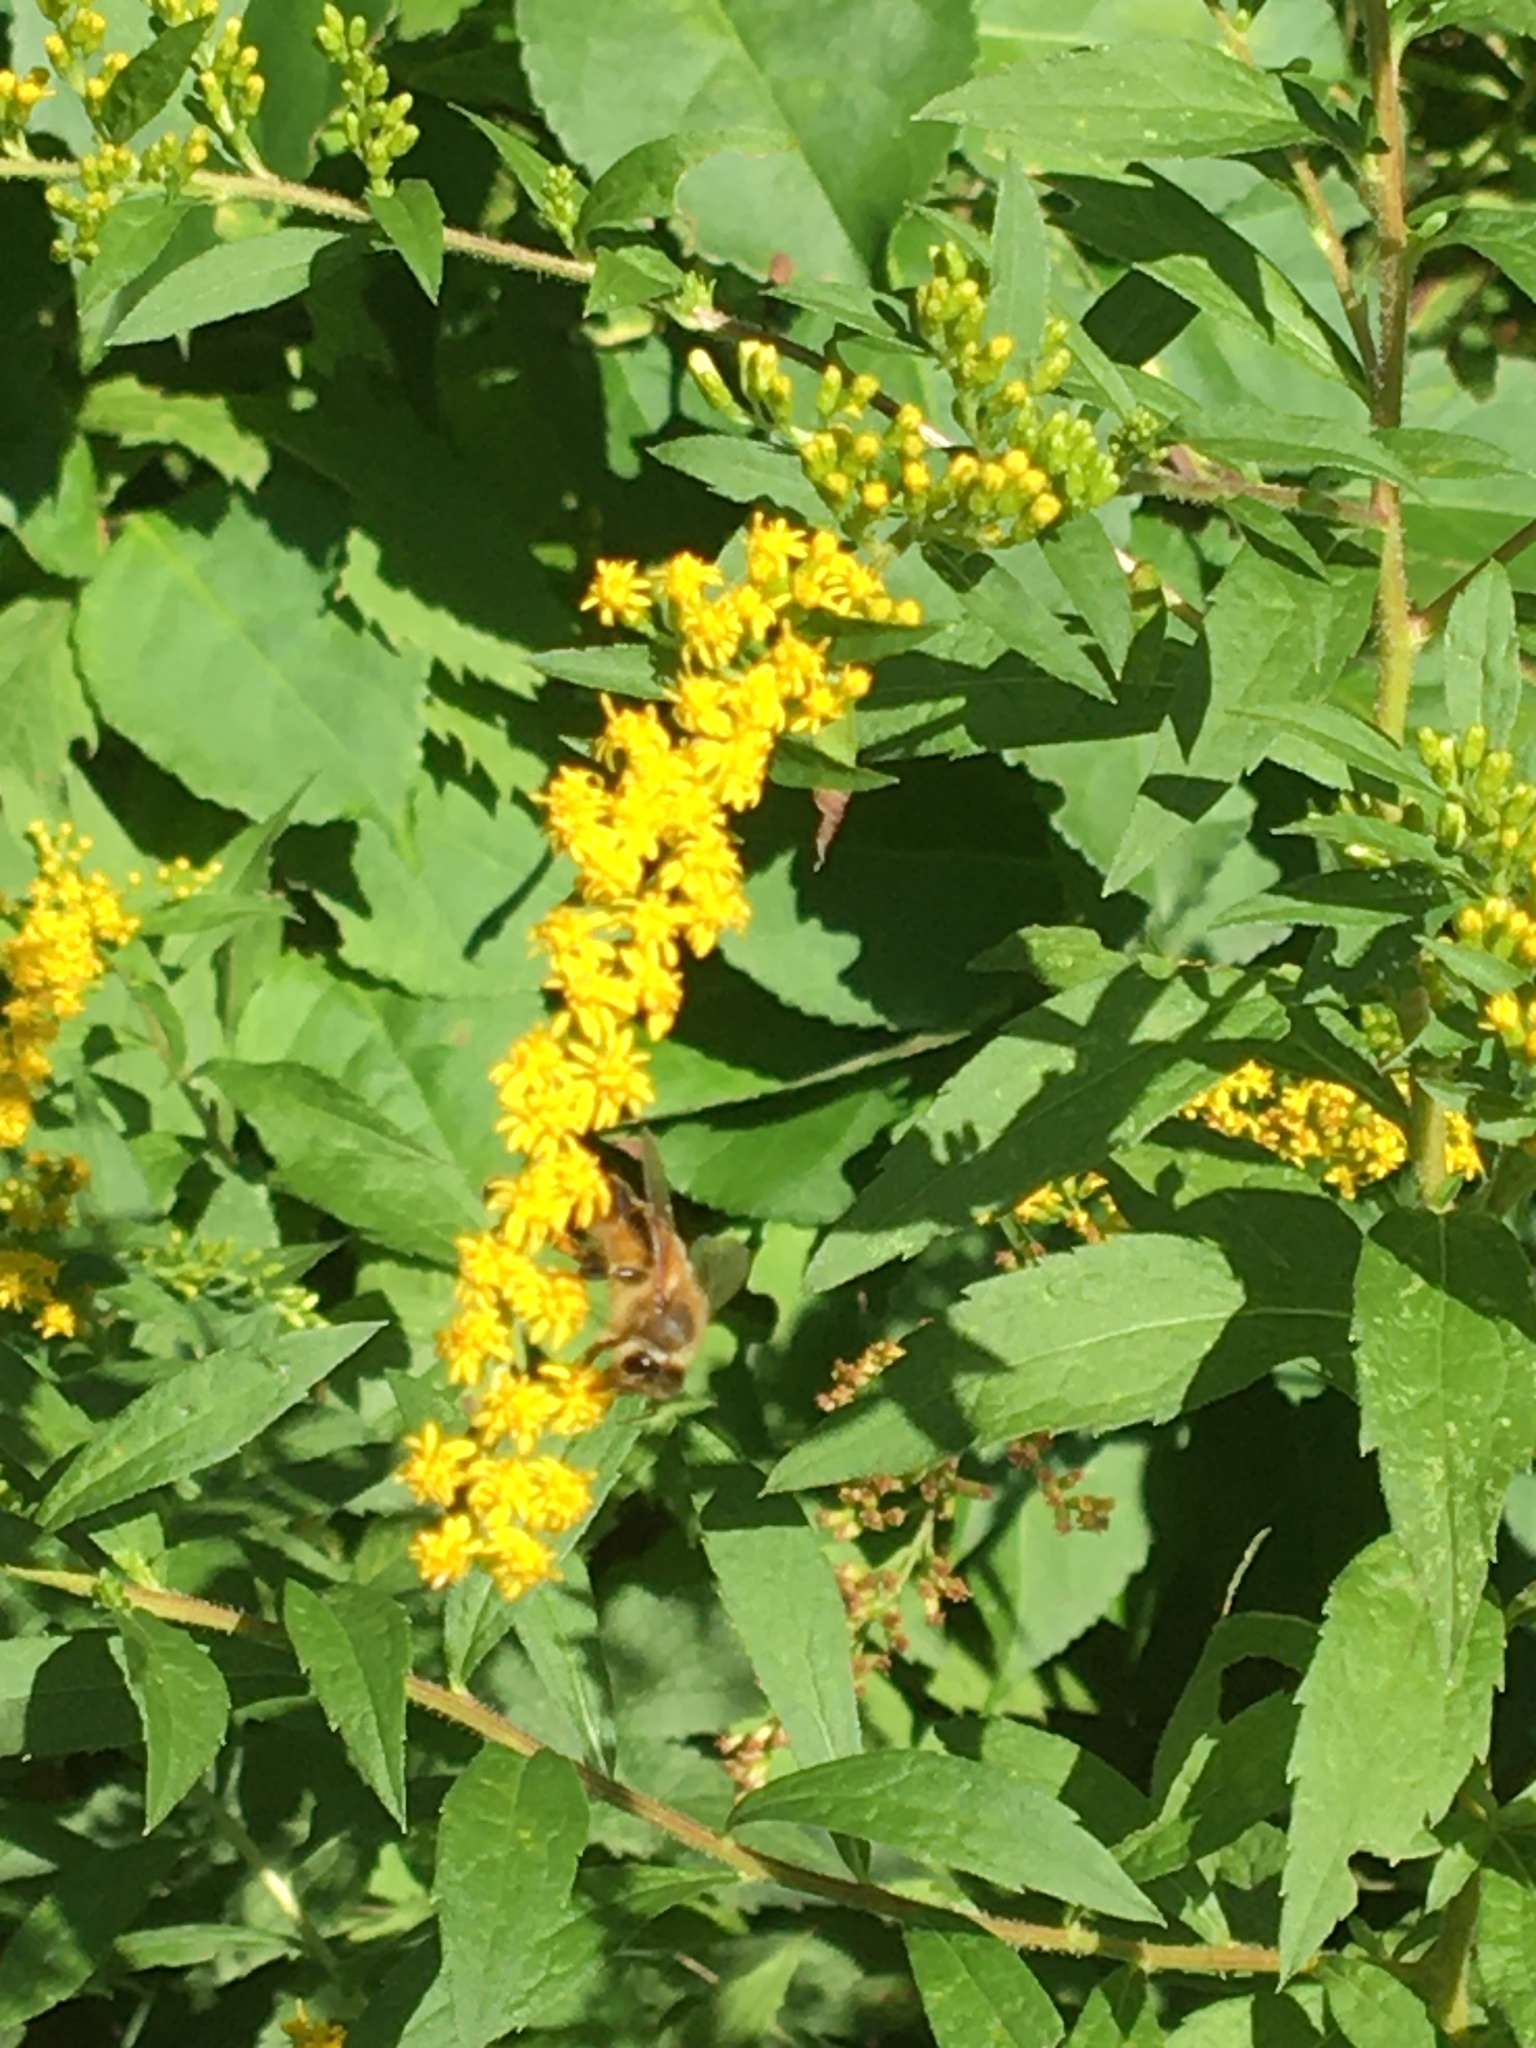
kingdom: Animalia
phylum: Arthropoda
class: Insecta
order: Hymenoptera
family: Apidae
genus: Apis
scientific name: Apis mellifera
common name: Honey bee
